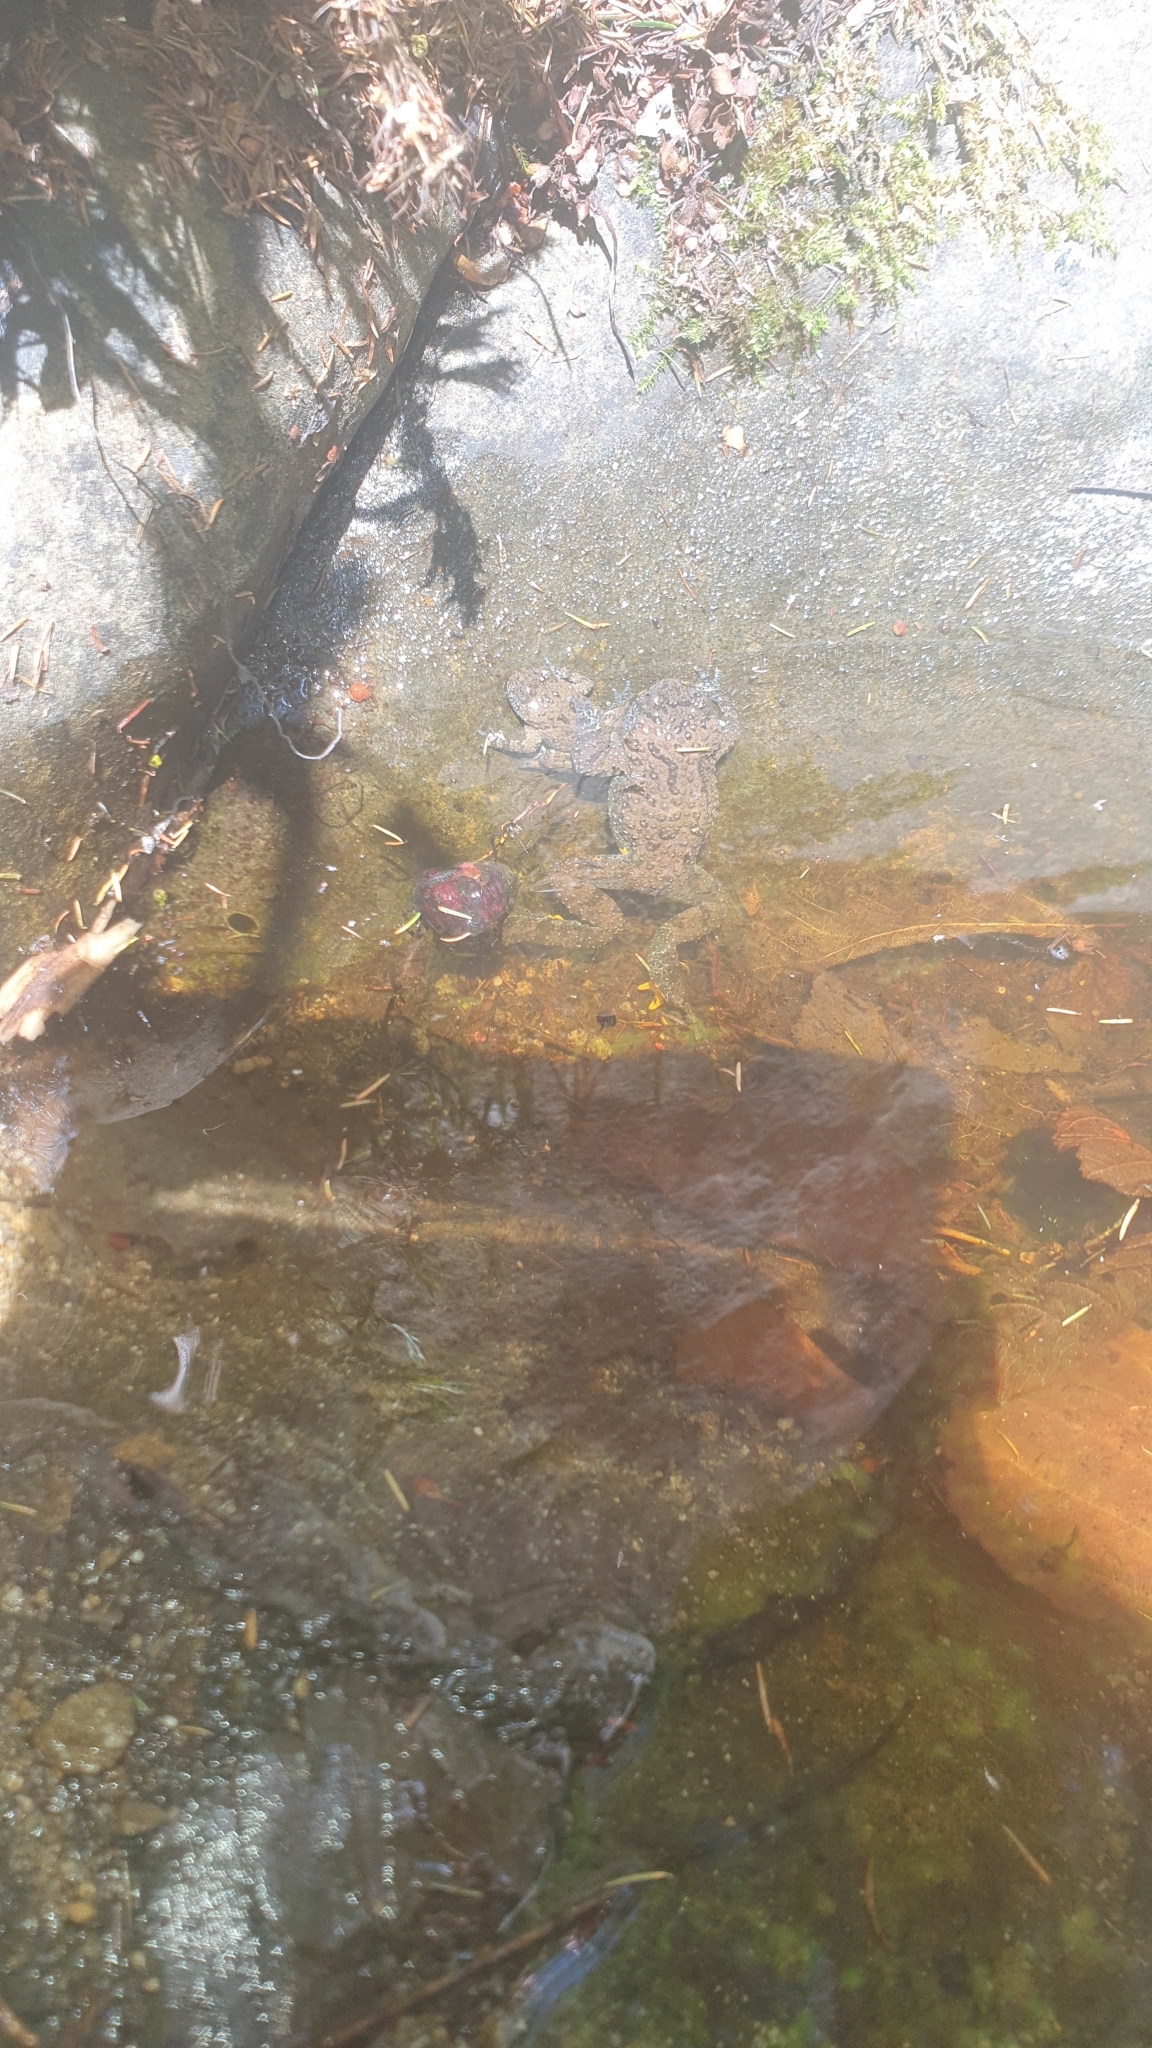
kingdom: Animalia
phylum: Chordata
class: Amphibia
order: Anura
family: Bombinatoridae
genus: Bombina
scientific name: Bombina variegata
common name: Yellow-bellied toad
